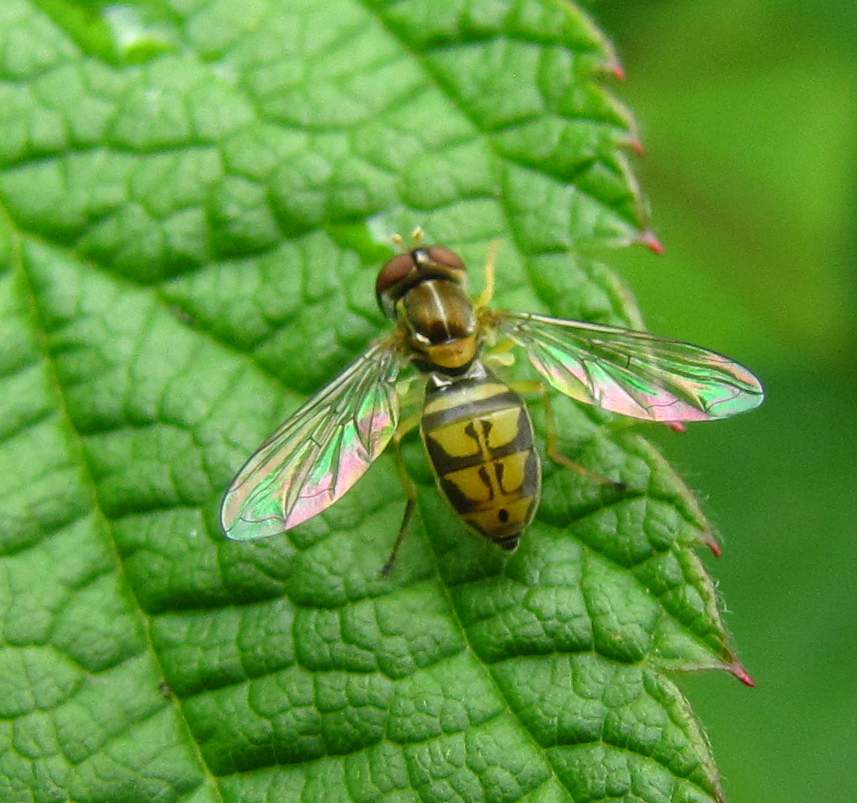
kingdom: Animalia
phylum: Arthropoda
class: Insecta
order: Diptera
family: Syrphidae
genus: Toxomerus
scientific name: Toxomerus marginatus
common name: Syrphid fly
